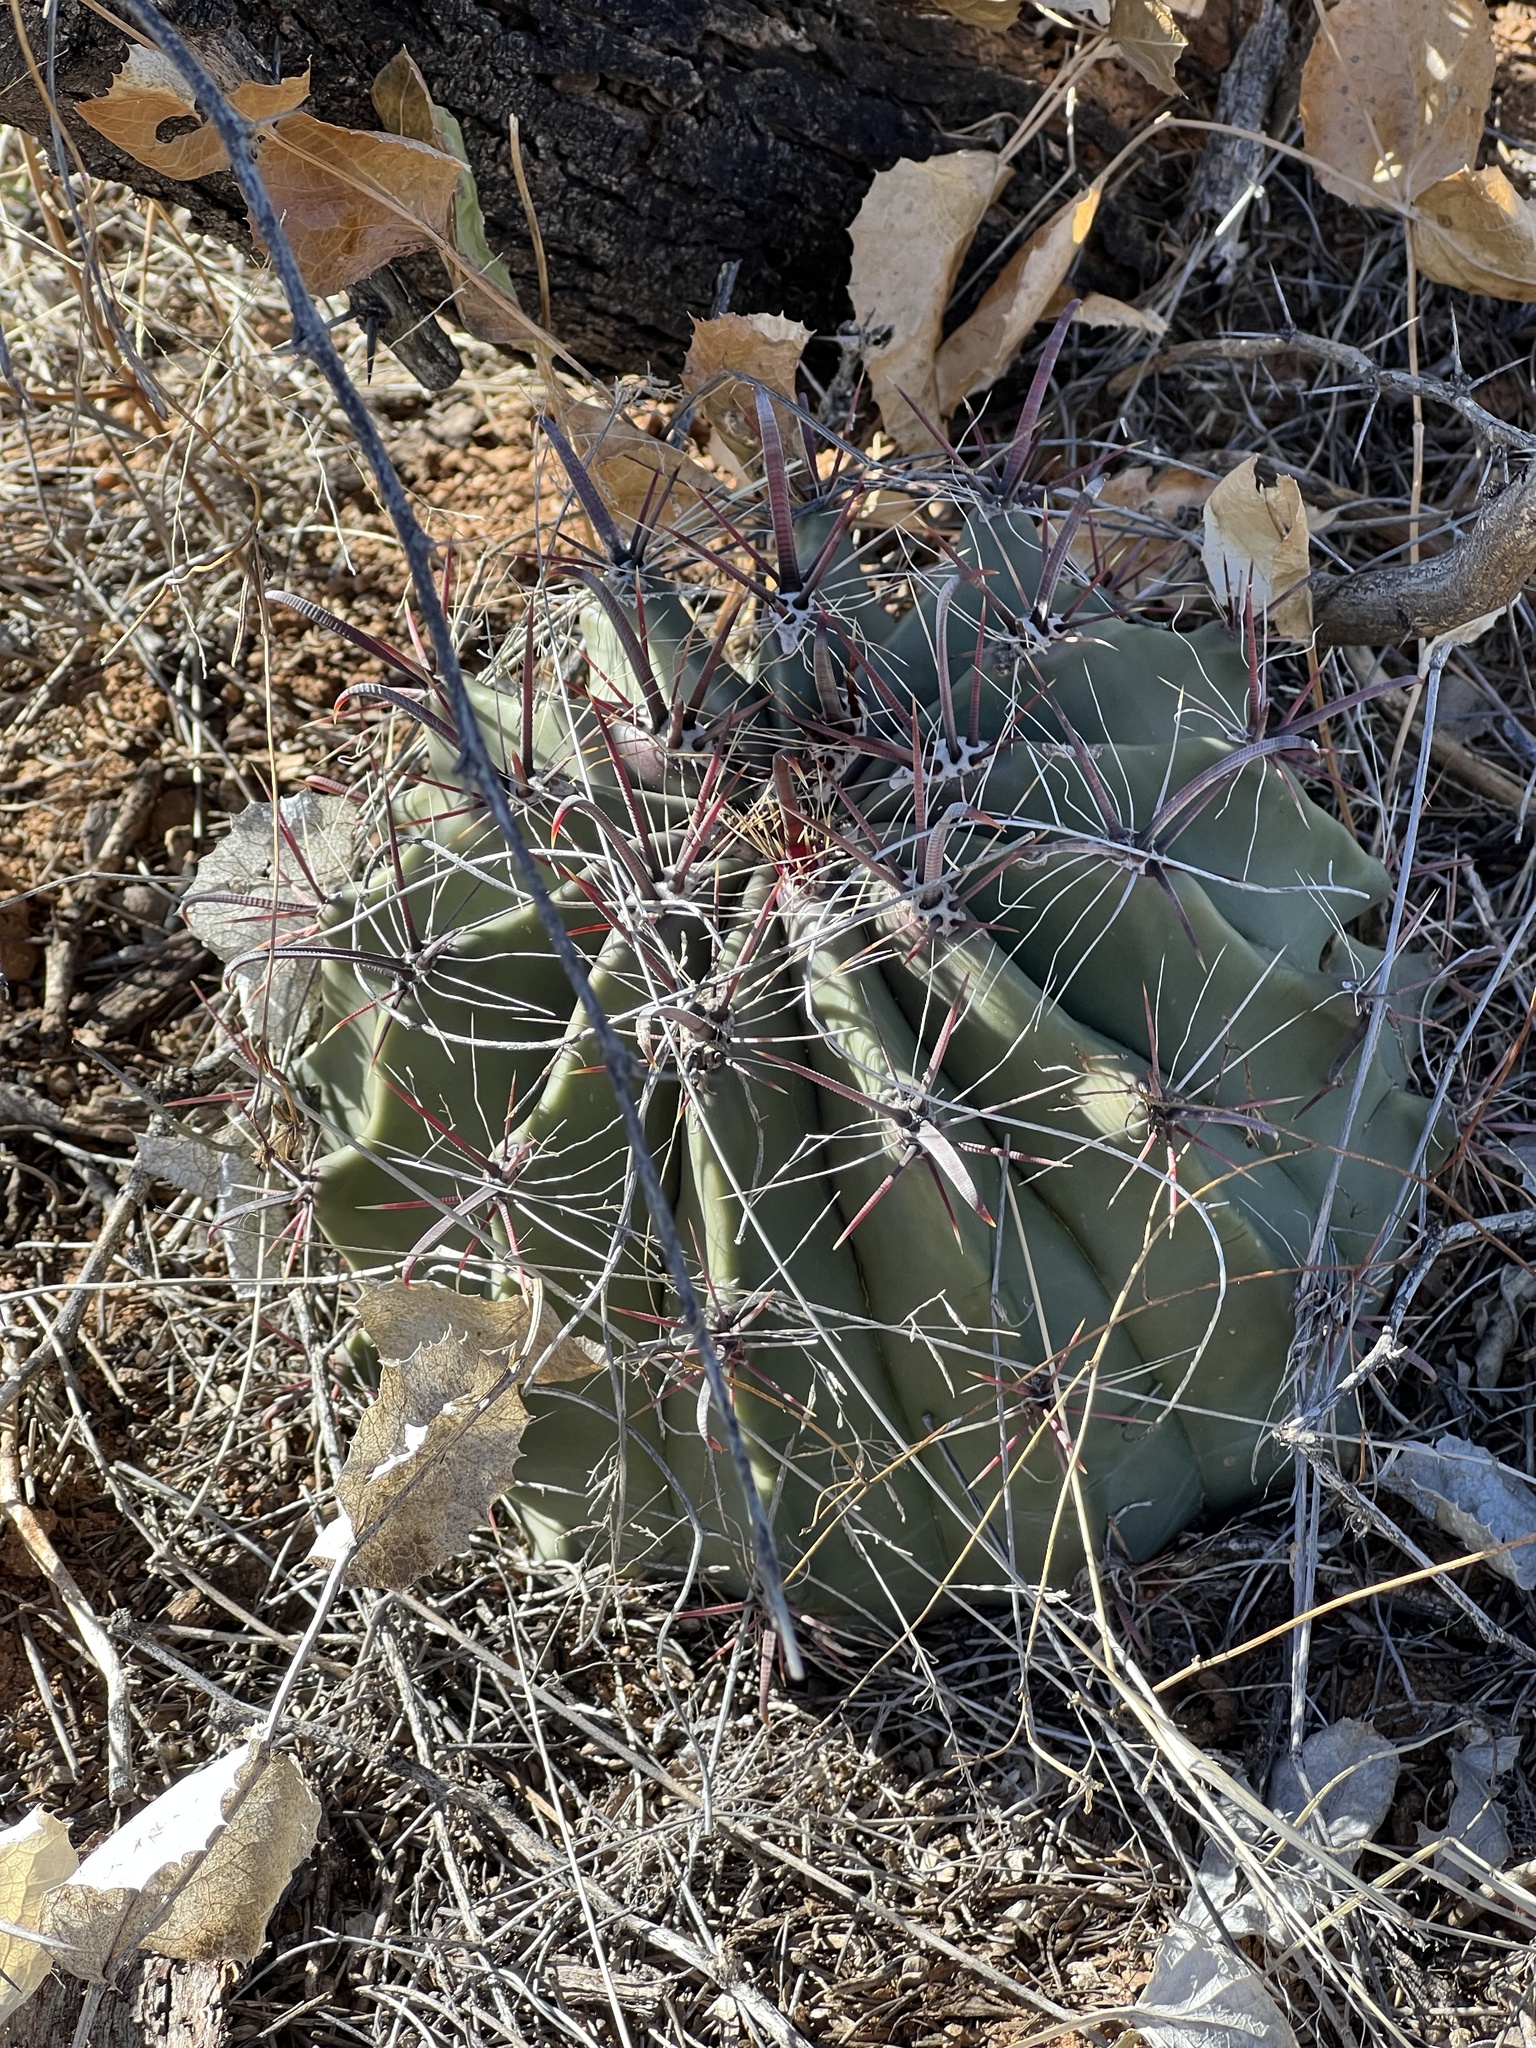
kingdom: Plantae
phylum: Tracheophyta
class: Magnoliopsida
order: Caryophyllales
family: Cactaceae
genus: Ferocactus
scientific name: Ferocactus wislizeni
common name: Candy barrel cactus
